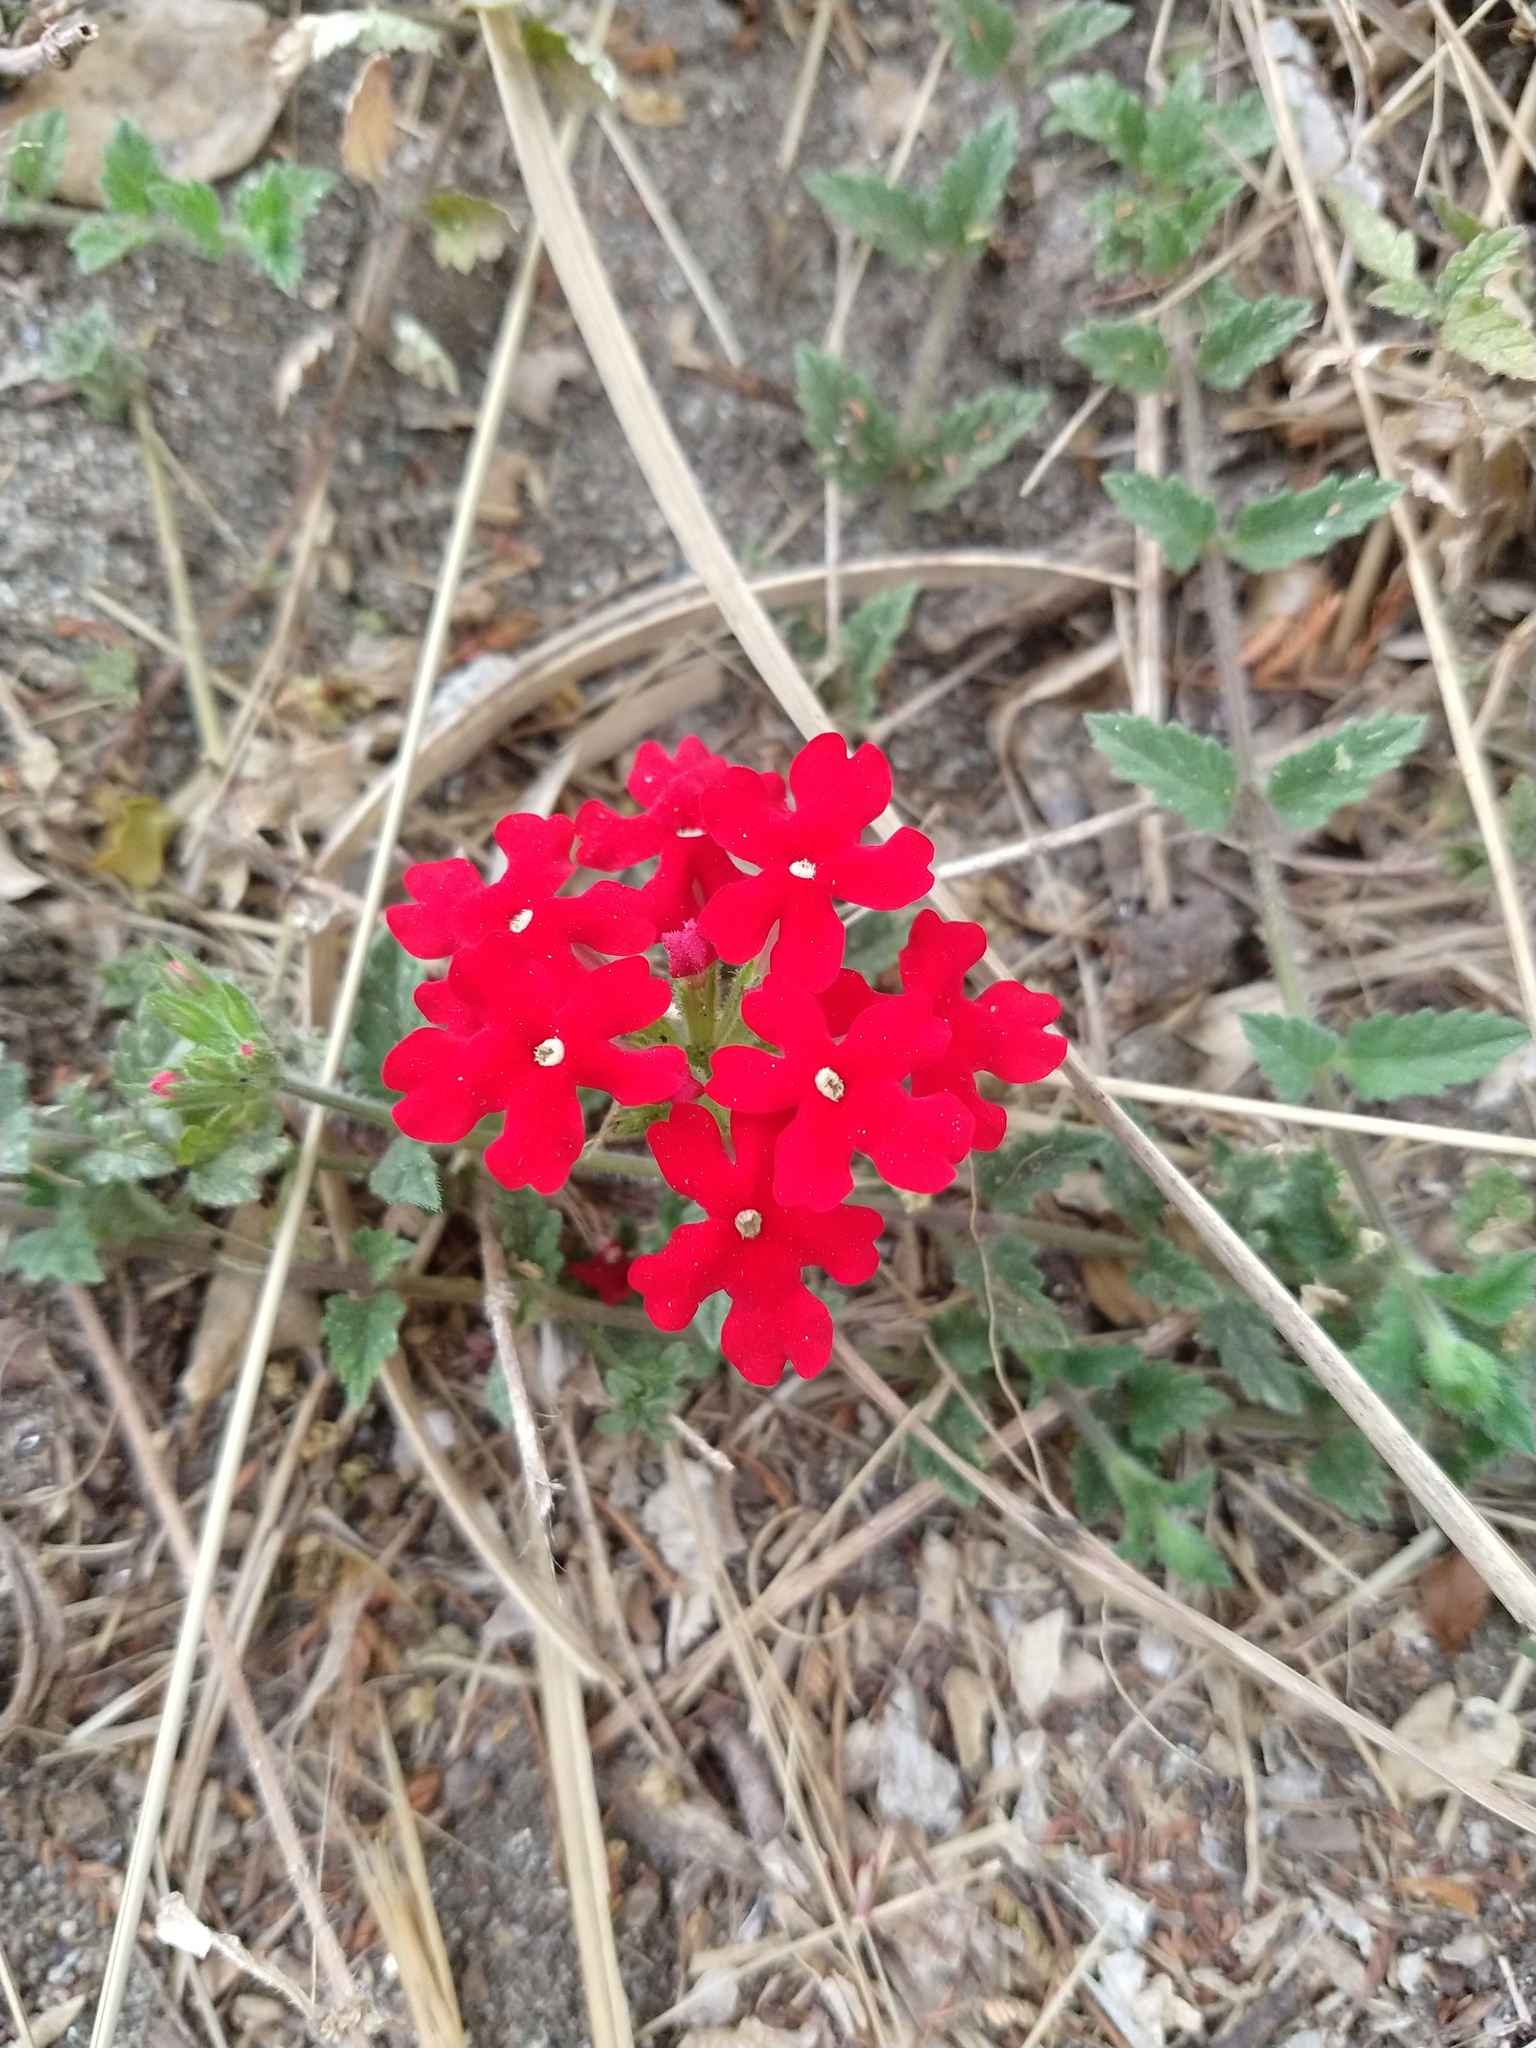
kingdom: Plantae
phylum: Tracheophyta
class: Magnoliopsida
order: Lamiales
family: Verbenaceae
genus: Verbena
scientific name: Verbena peruviana
